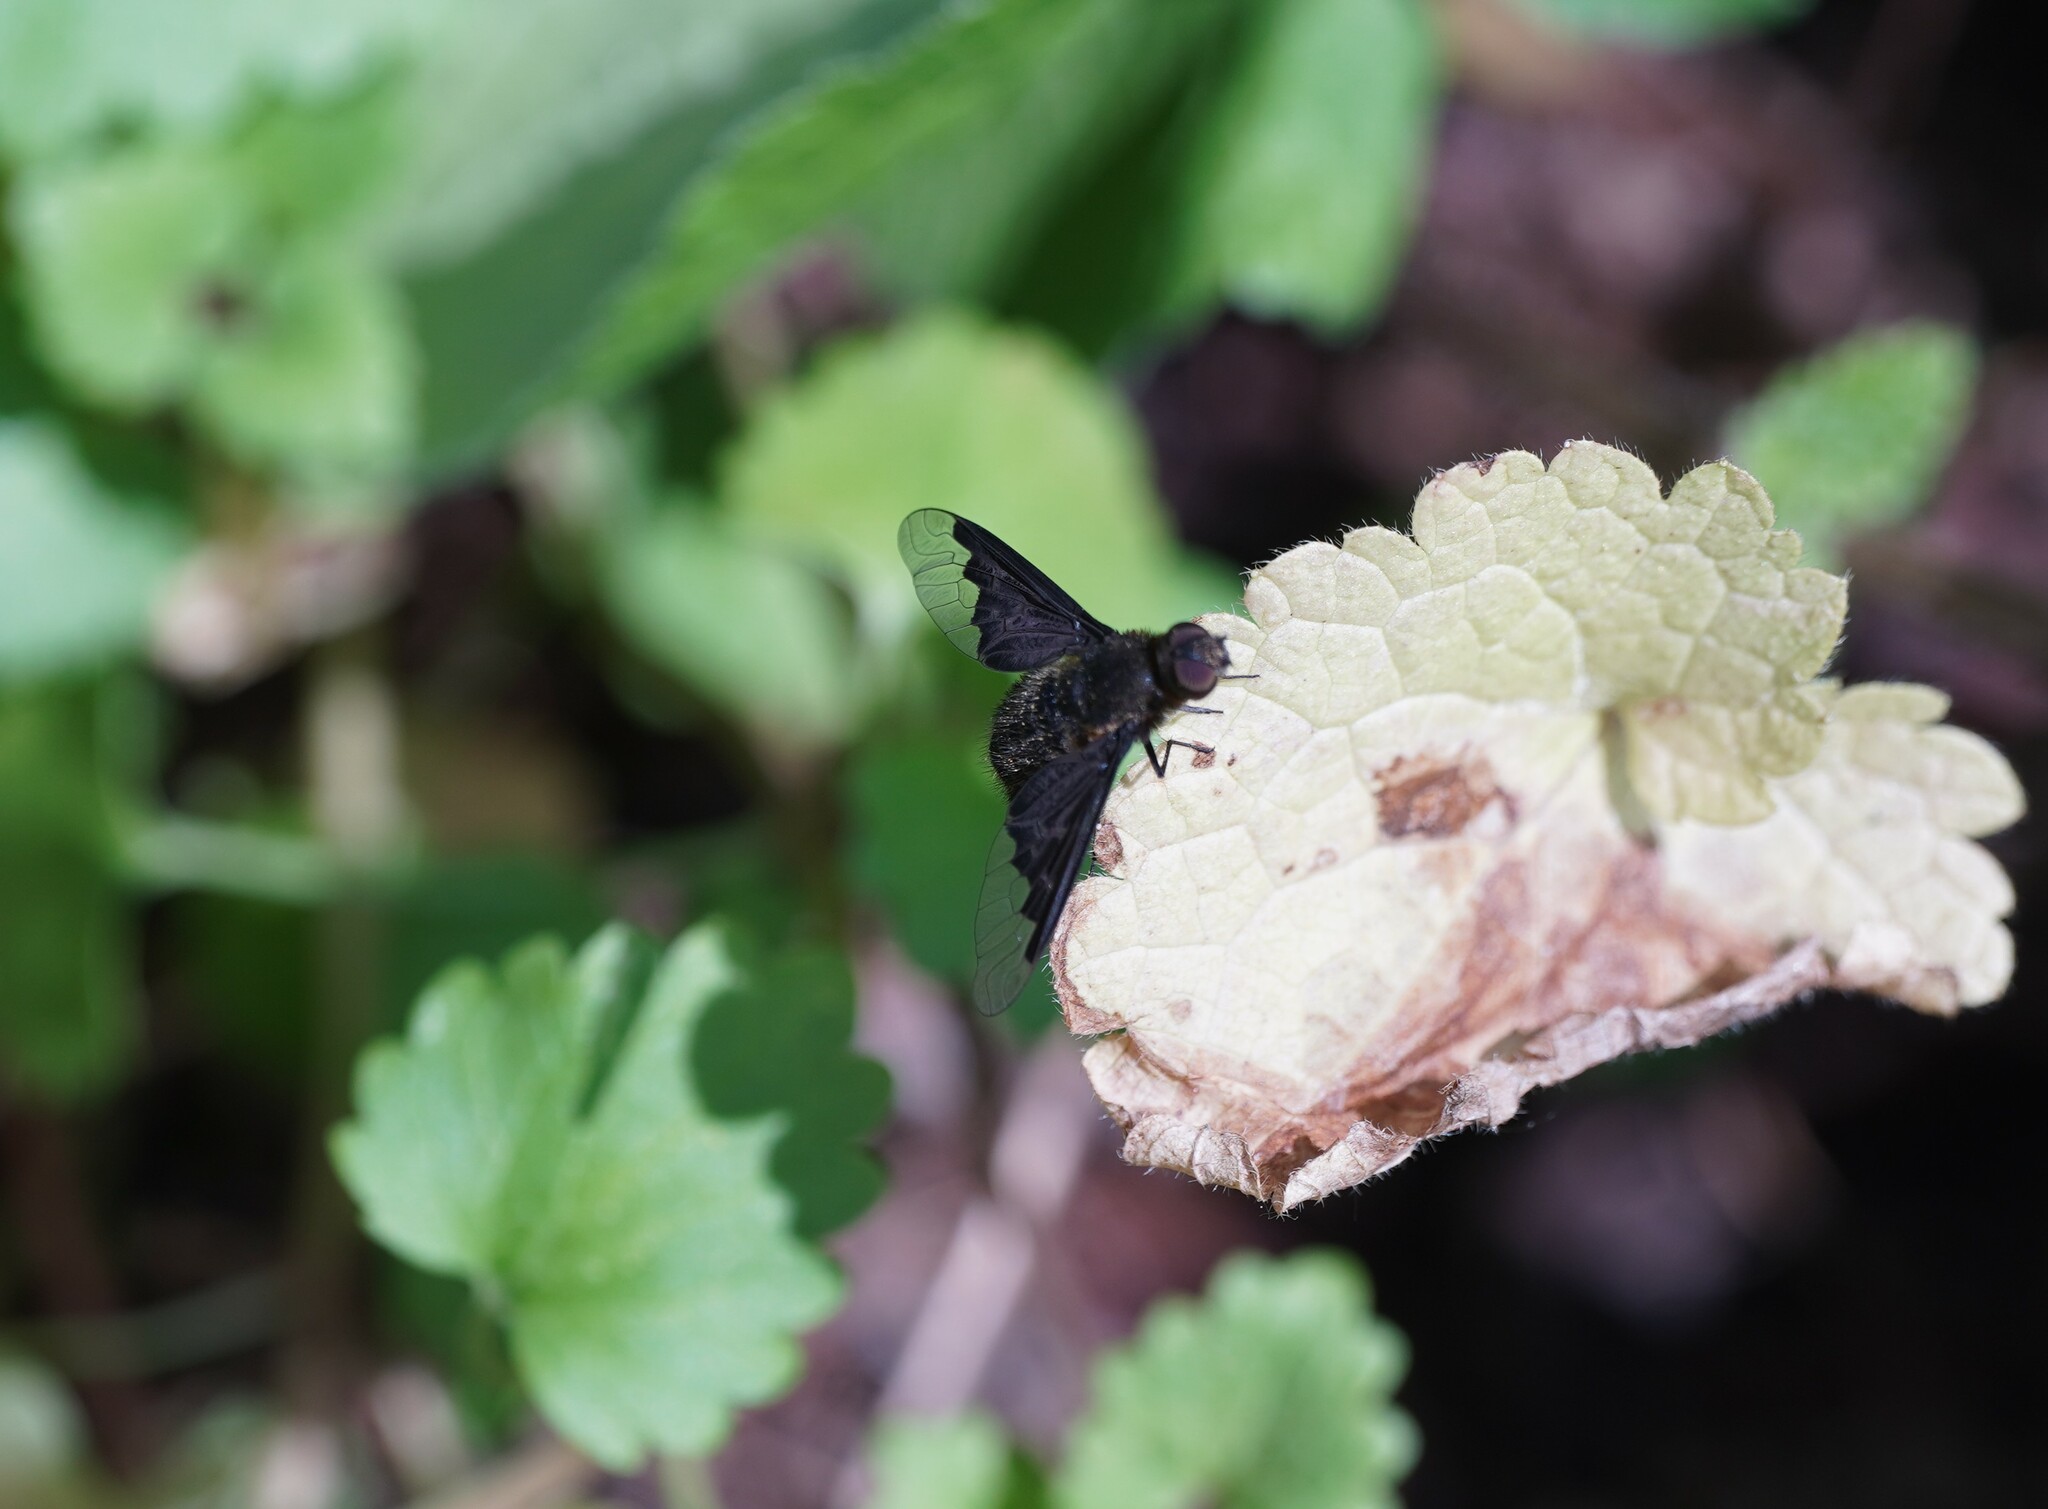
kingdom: Animalia
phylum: Arthropoda
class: Insecta
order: Diptera
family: Bombyliidae
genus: Hemipenthes
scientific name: Hemipenthes morio
